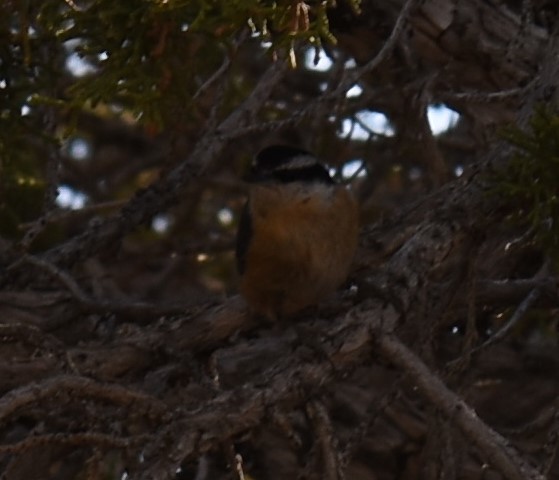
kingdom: Animalia
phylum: Chordata
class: Aves
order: Passeriformes
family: Sittidae
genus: Sitta
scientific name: Sitta canadensis
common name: Red-breasted nuthatch
